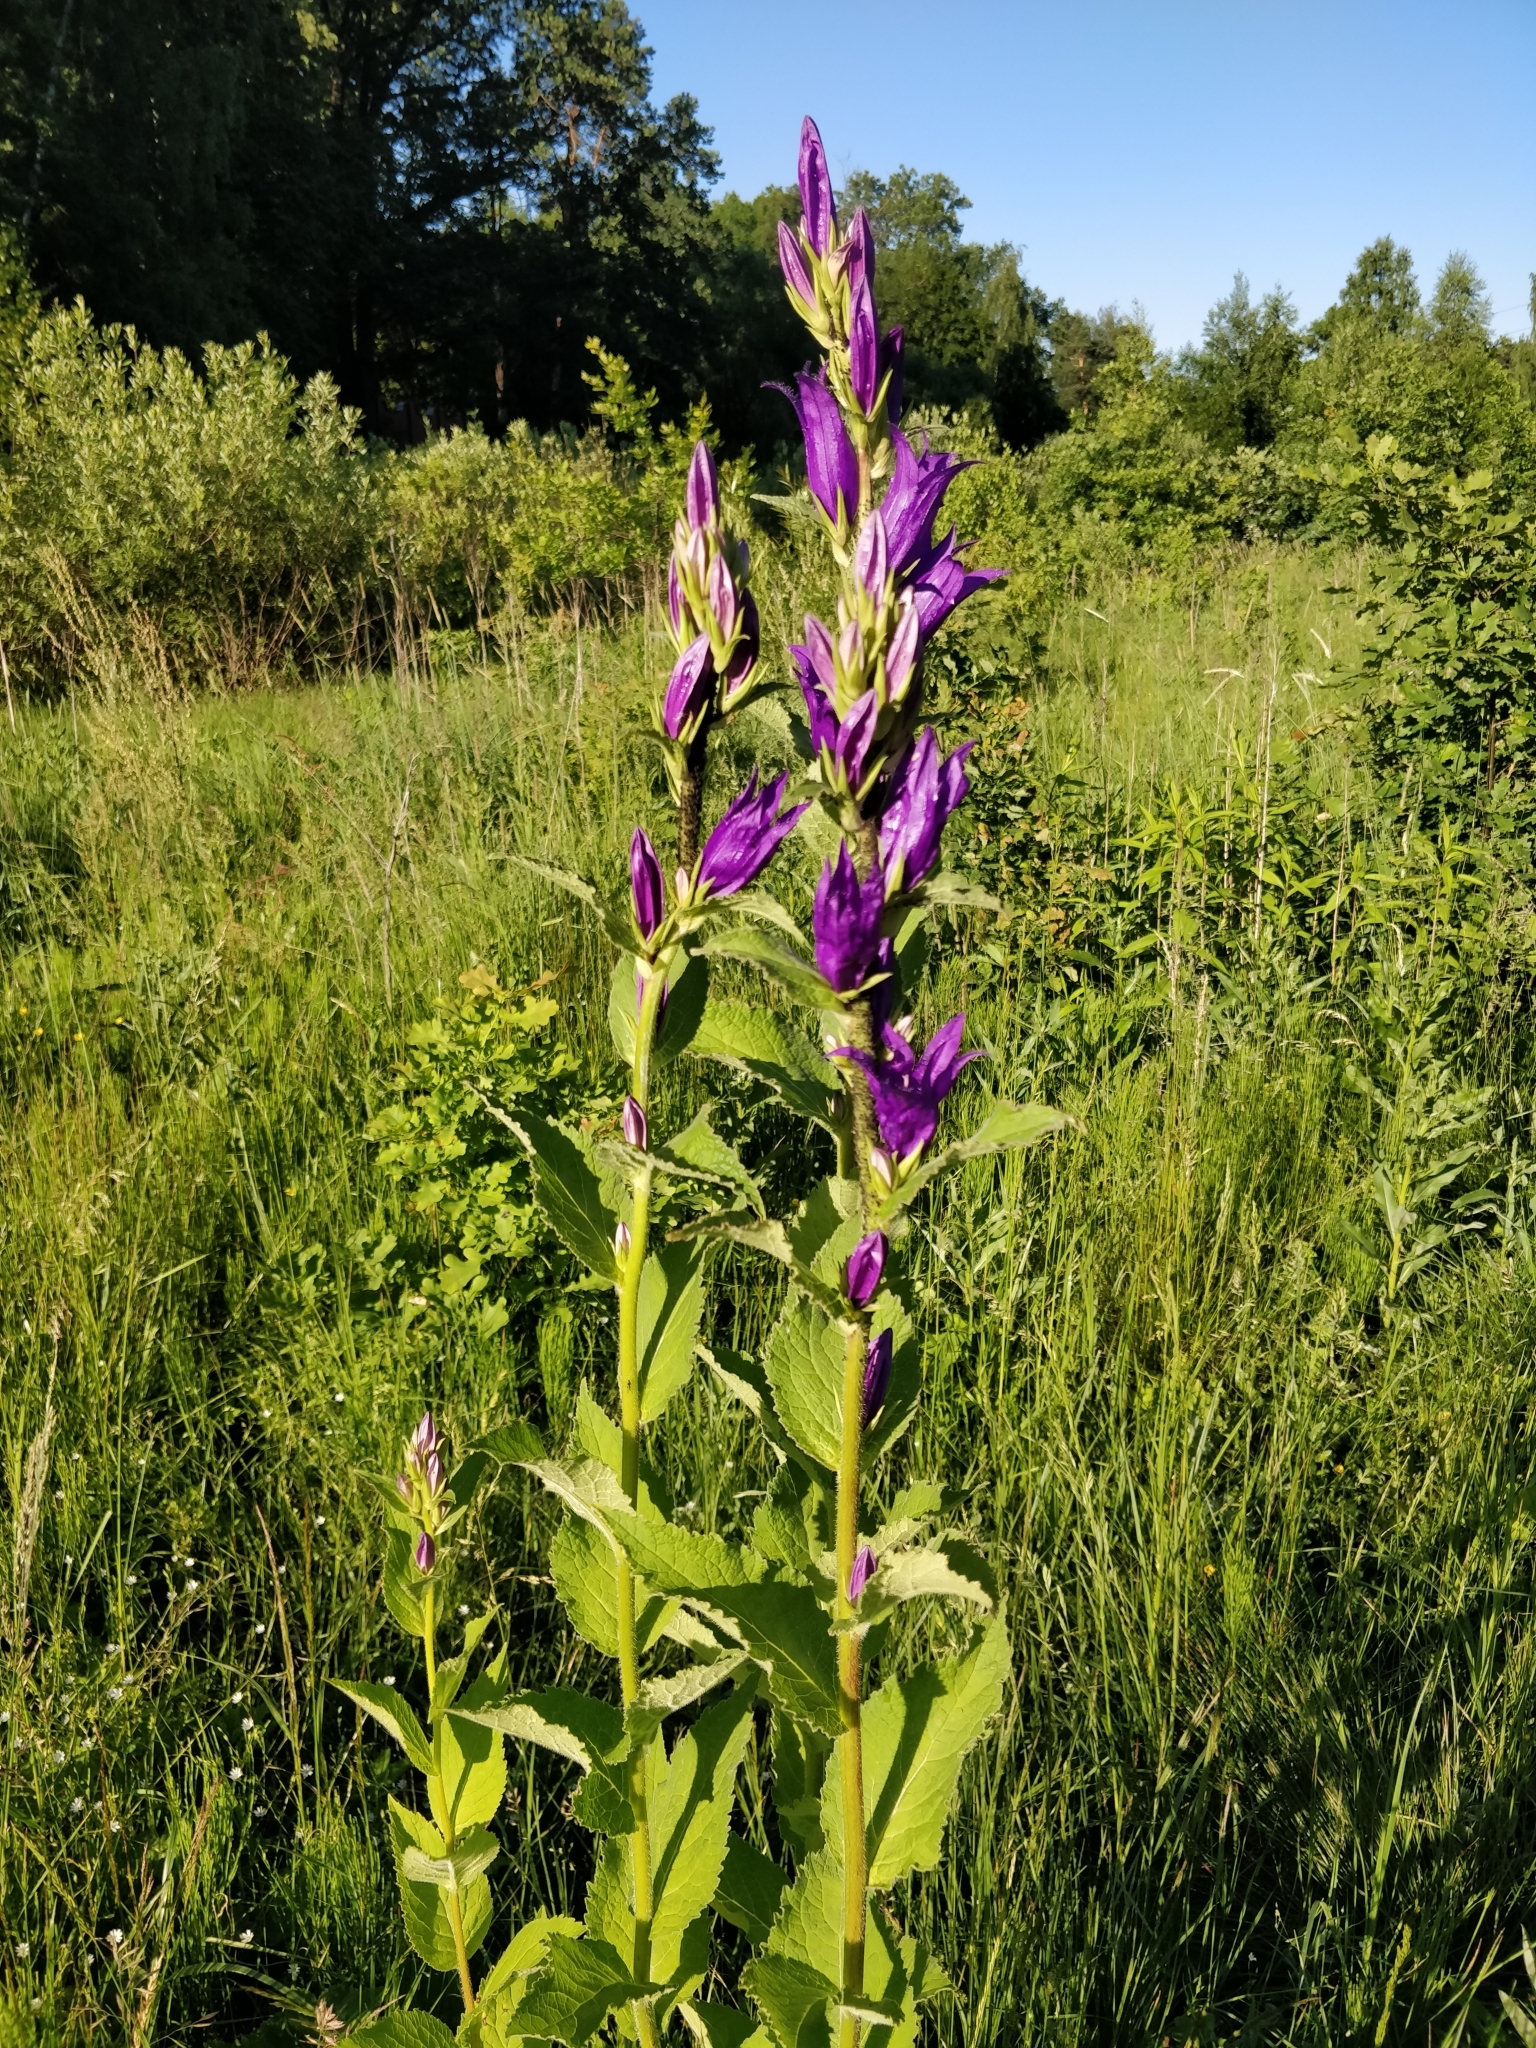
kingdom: Plantae
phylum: Tracheophyta
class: Magnoliopsida
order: Asterales
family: Campanulaceae
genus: Campanula
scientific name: Campanula latifolia
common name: Giant bellflower
